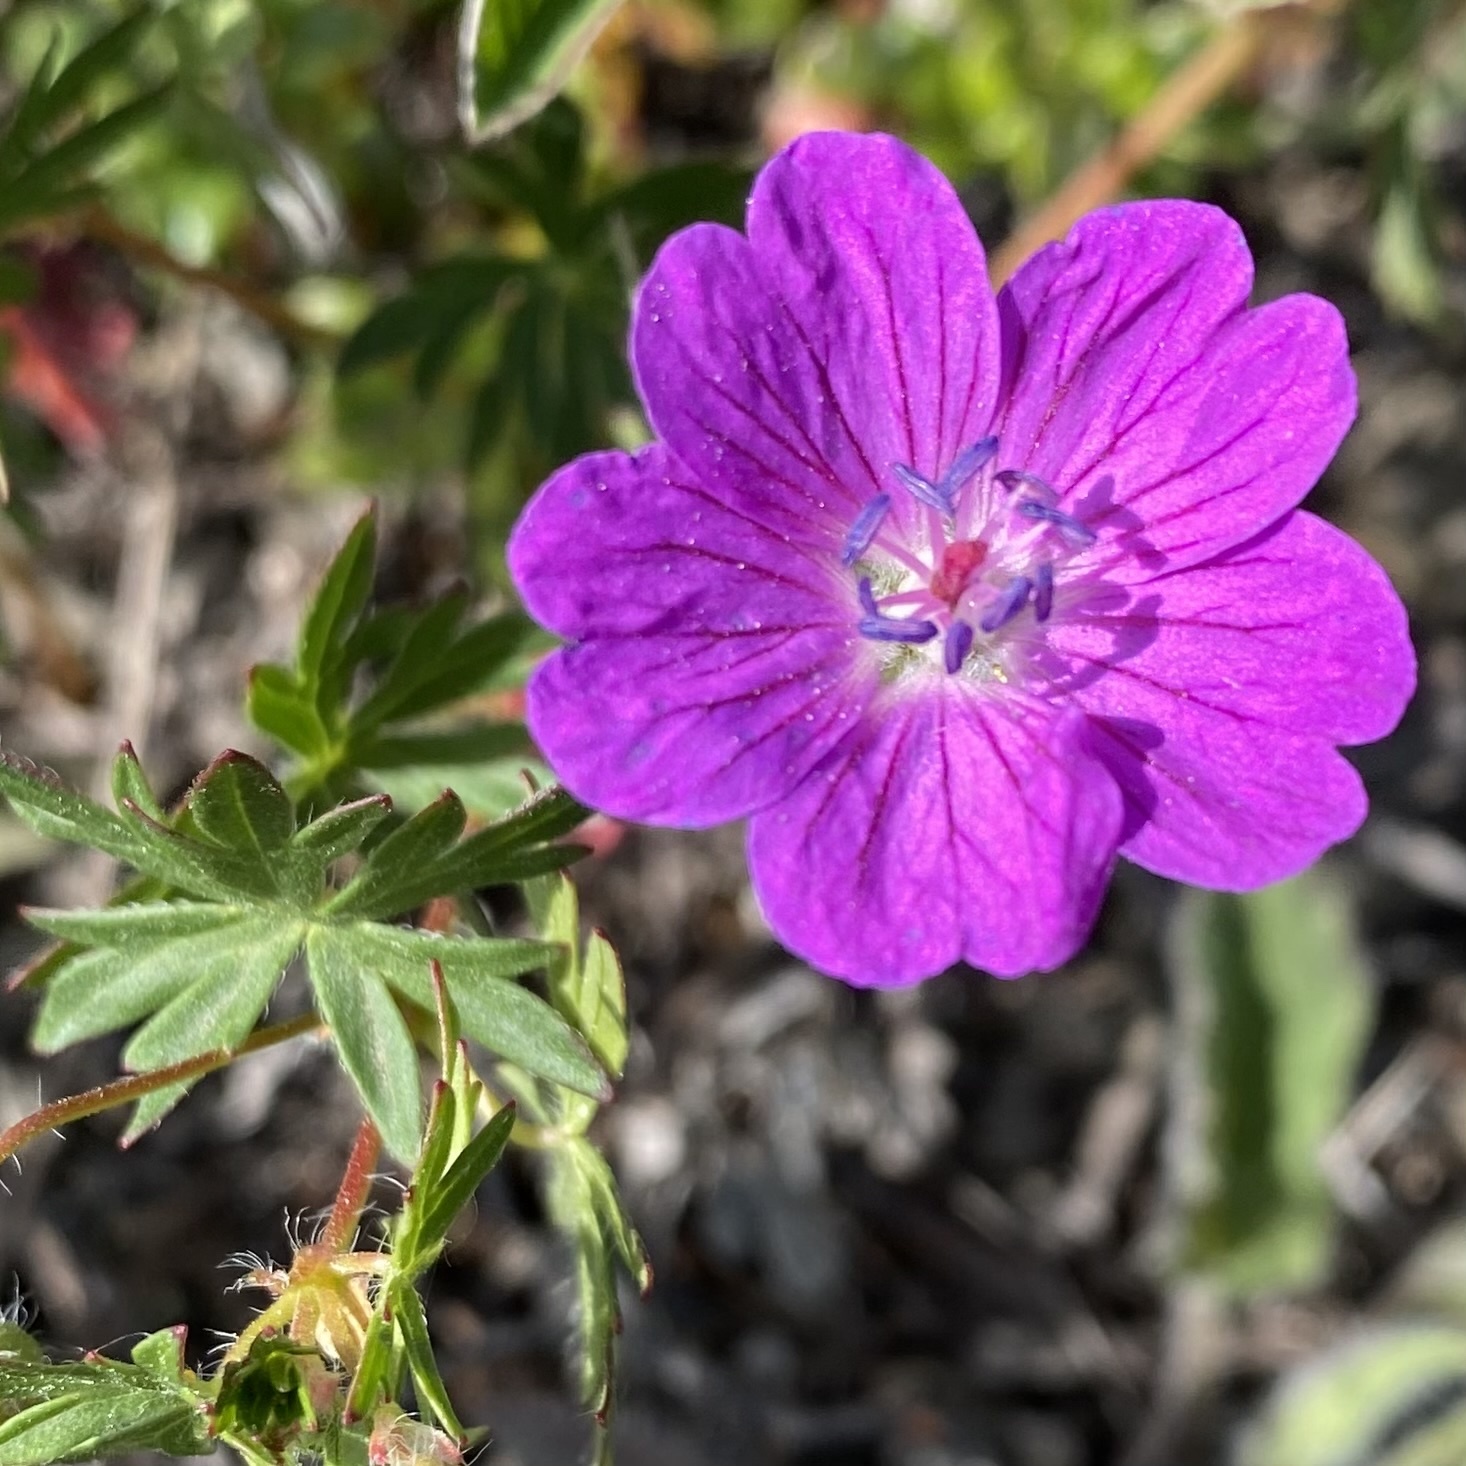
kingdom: Plantae
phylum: Tracheophyta
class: Magnoliopsida
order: Geraniales
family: Geraniaceae
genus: Geranium
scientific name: Geranium sanguineum
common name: Bloody crane's-bill
